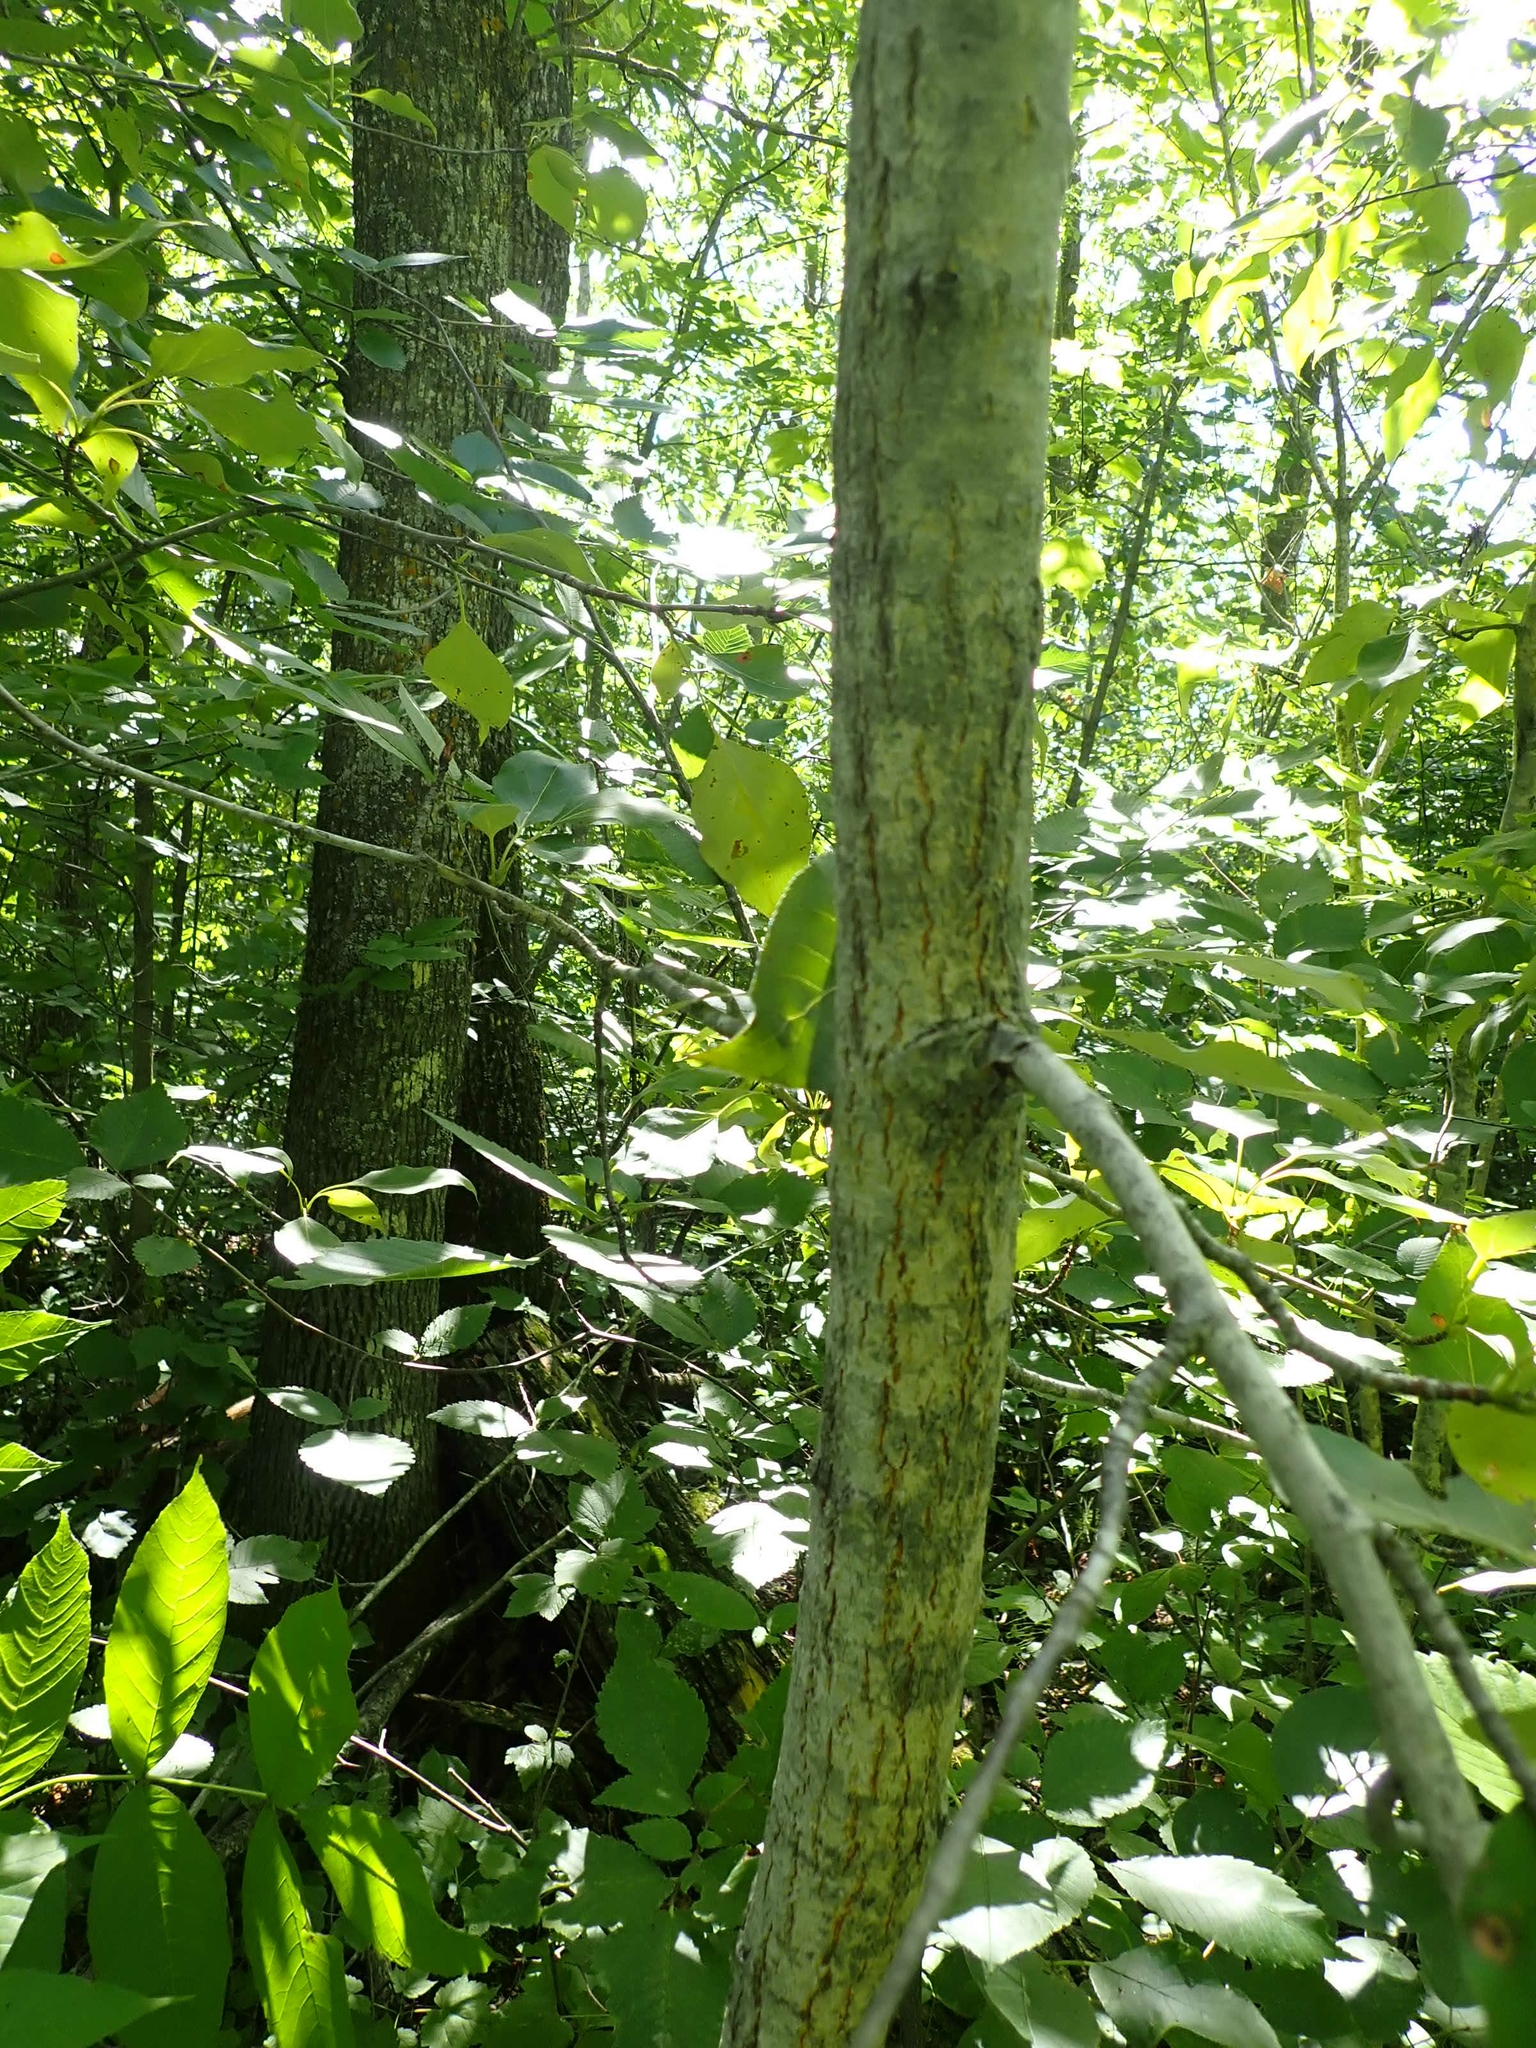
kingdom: Plantae
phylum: Tracheophyta
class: Magnoliopsida
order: Malpighiales
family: Salicaceae
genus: Populus
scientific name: Populus balsamifera
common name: Balsam poplar
